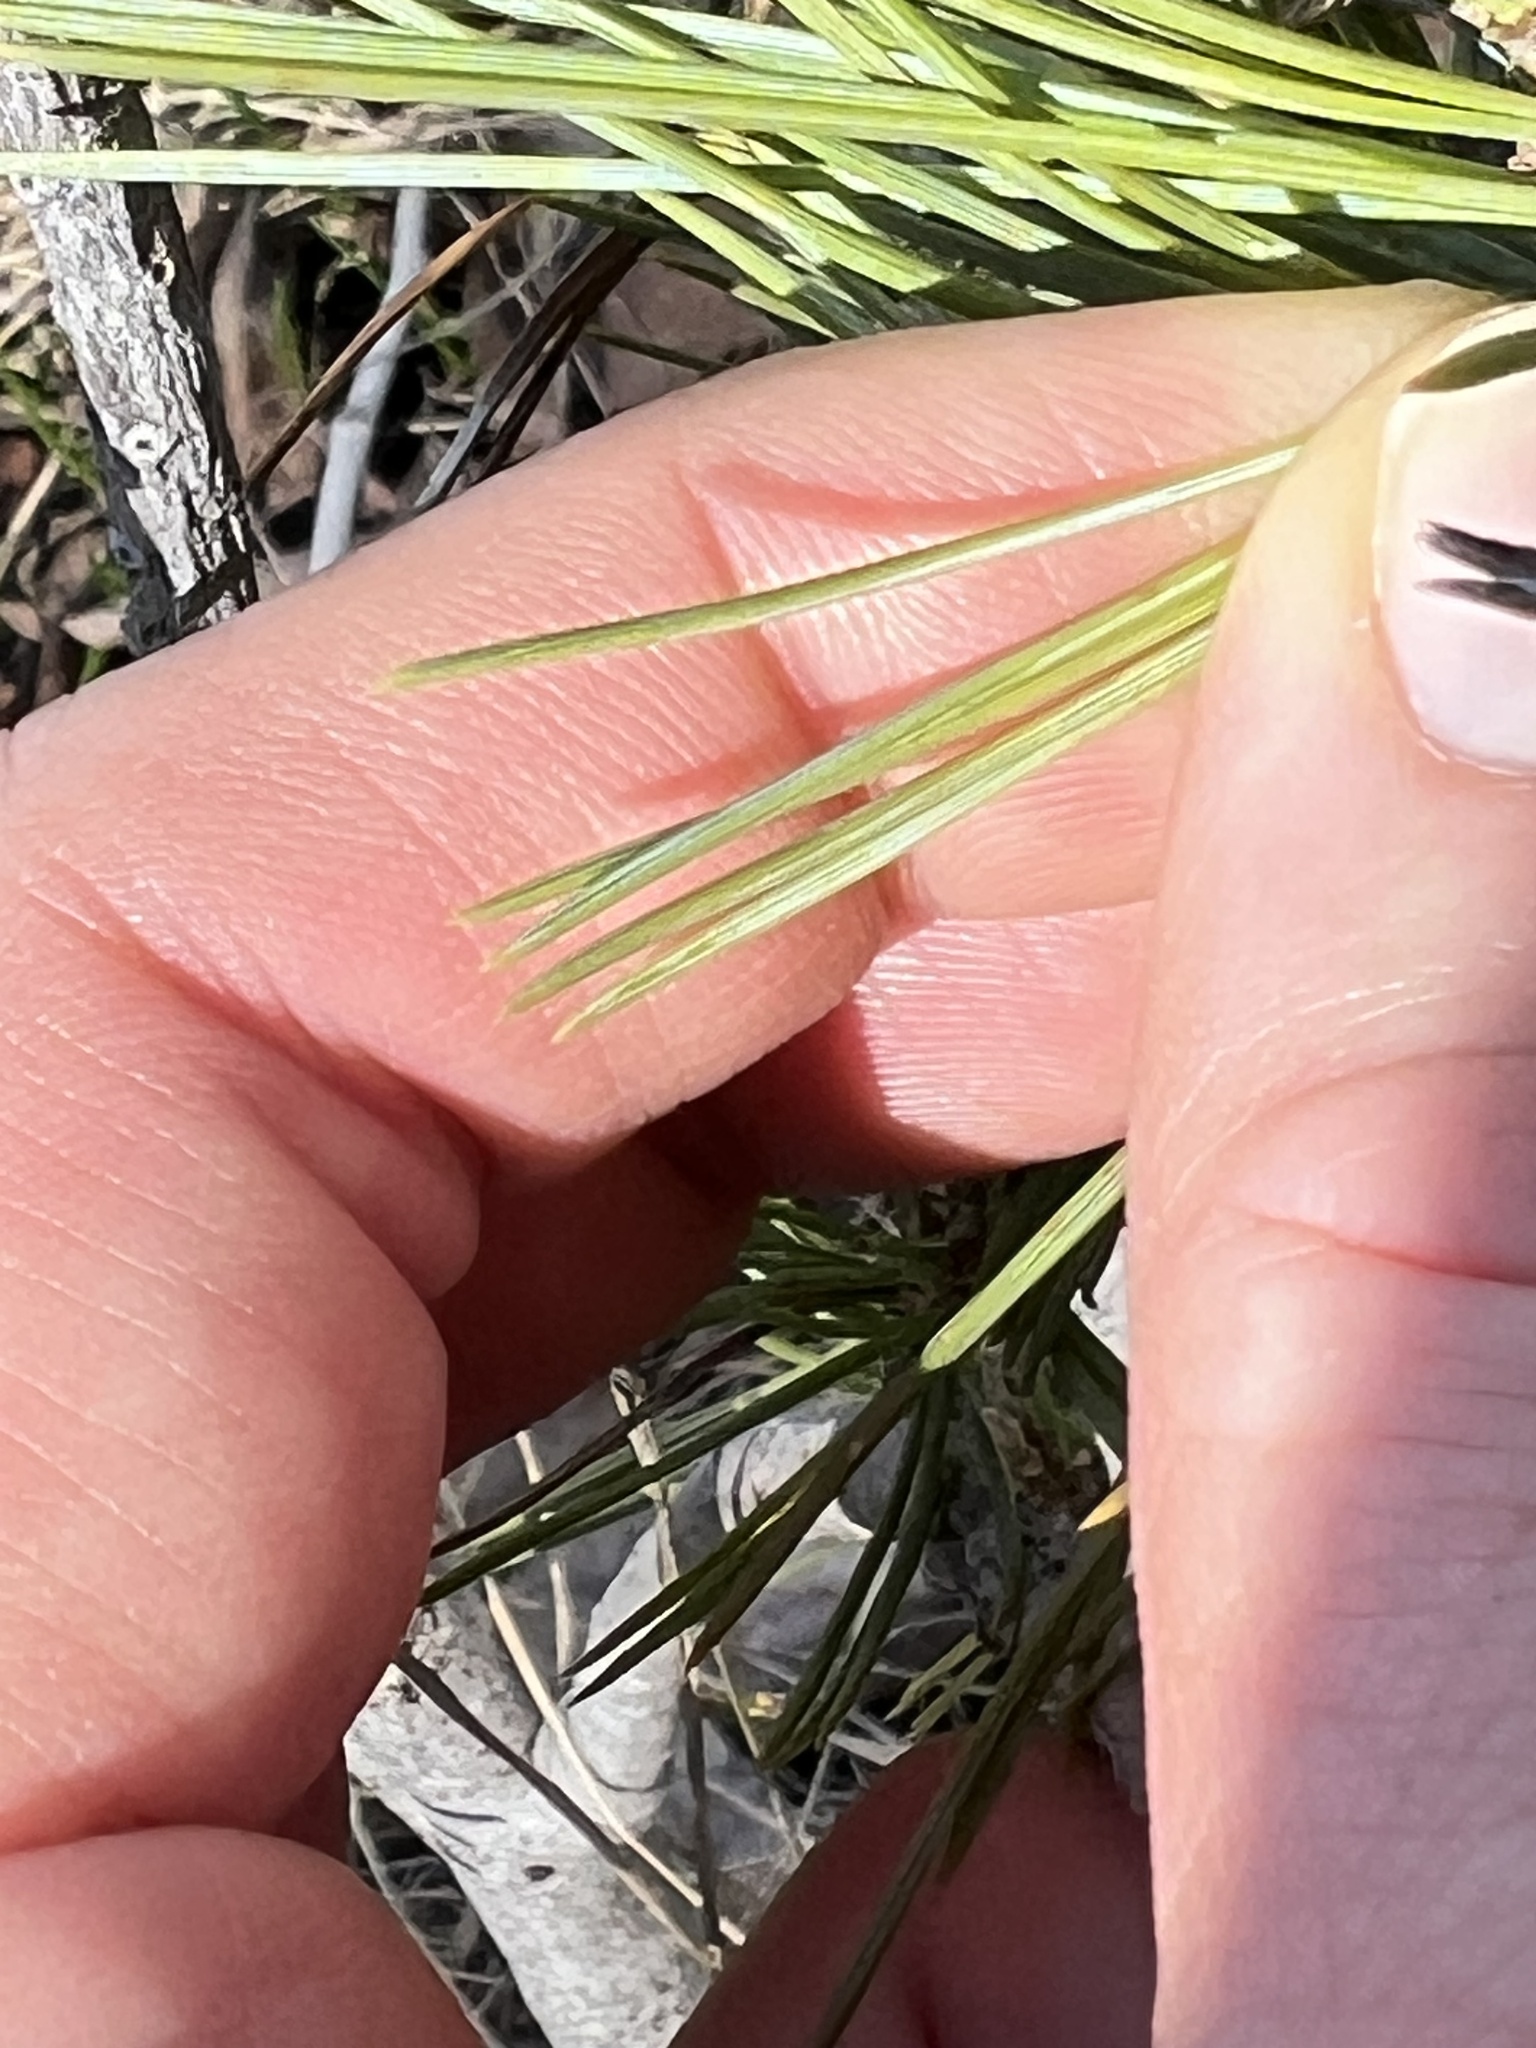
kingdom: Plantae
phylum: Tracheophyta
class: Pinopsida
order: Pinales
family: Pinaceae
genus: Pinus
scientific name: Pinus flexilis
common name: Limber pine
